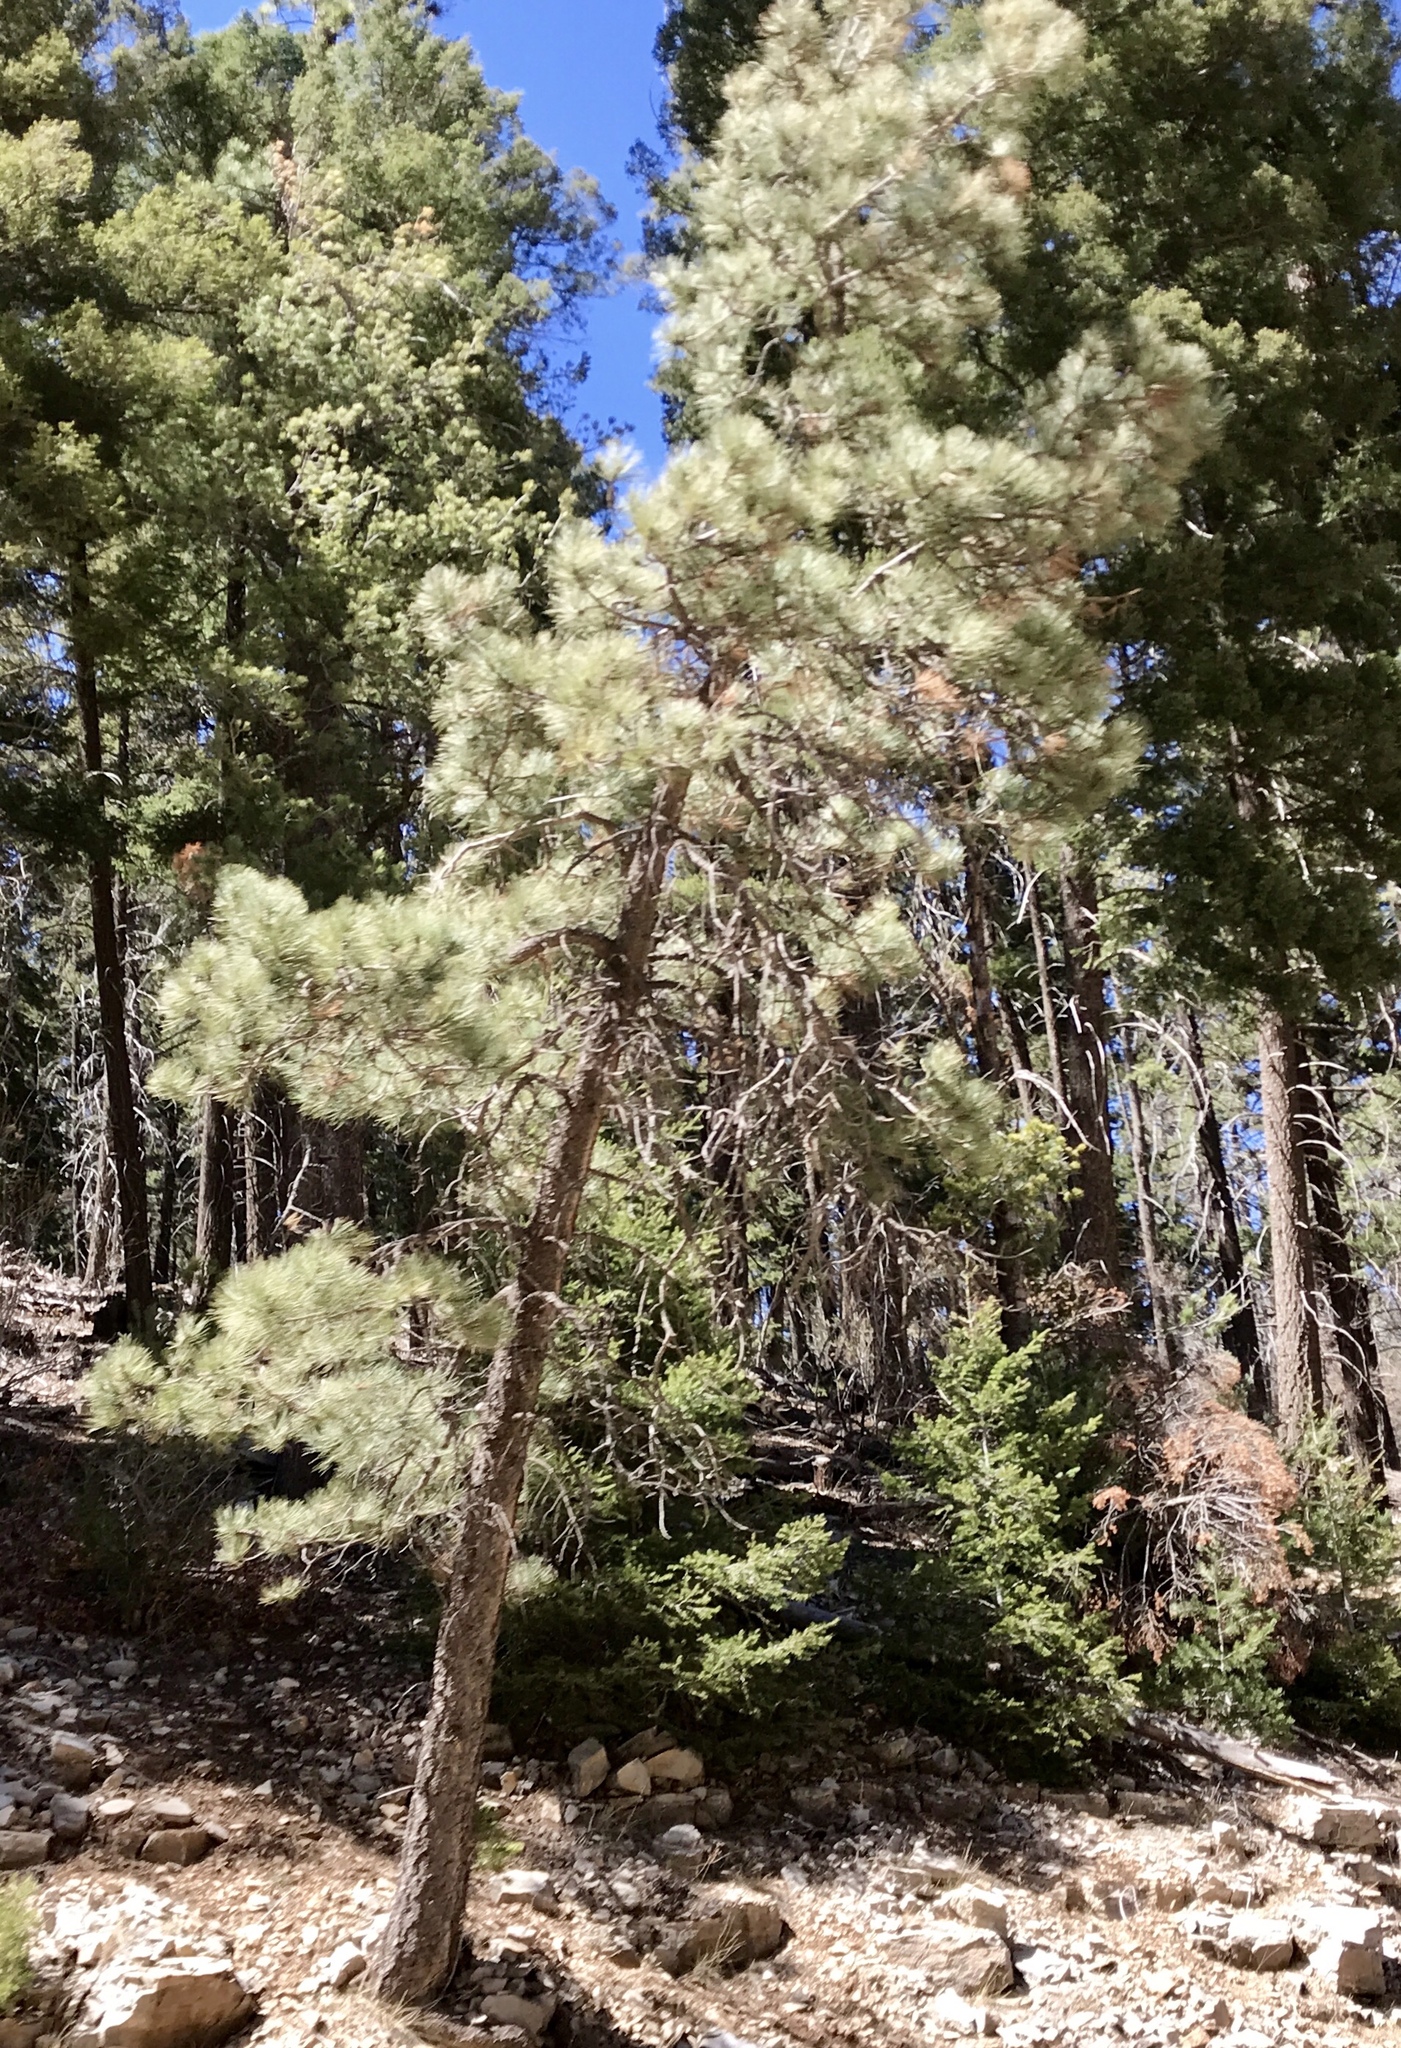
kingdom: Plantae
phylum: Tracheophyta
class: Pinopsida
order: Pinales
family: Pinaceae
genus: Pinus
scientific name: Pinus ponderosa
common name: Western yellow-pine
